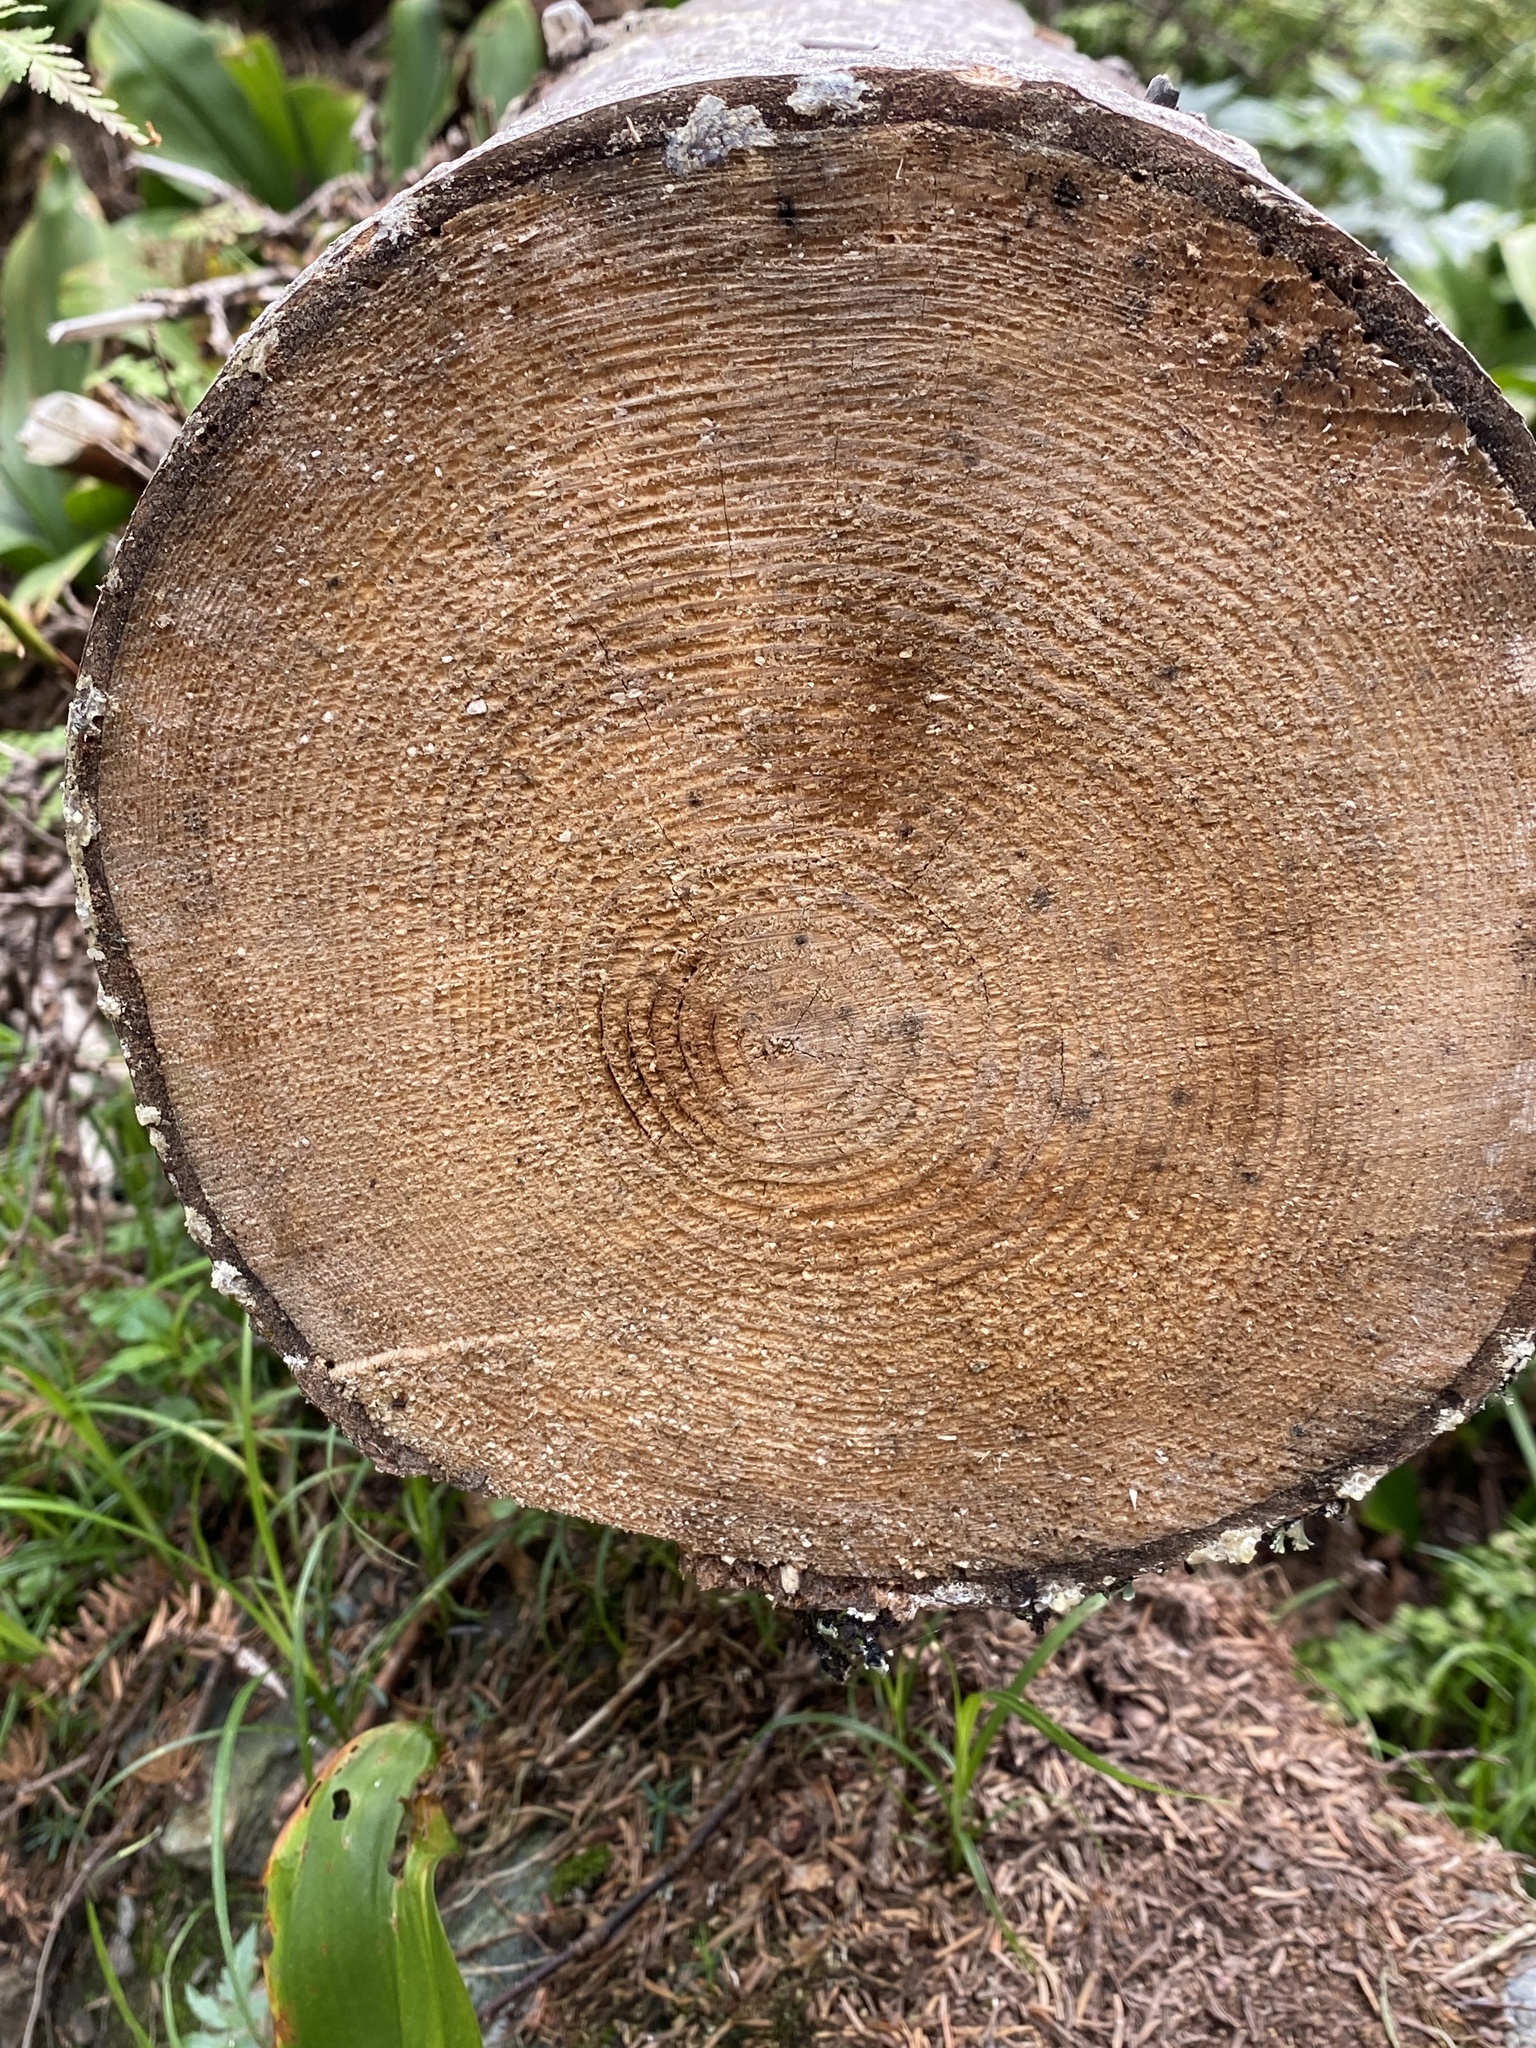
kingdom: Plantae
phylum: Tracheophyta
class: Pinopsida
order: Pinales
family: Pinaceae
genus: Abies
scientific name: Abies balsamea
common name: Balsam fir
